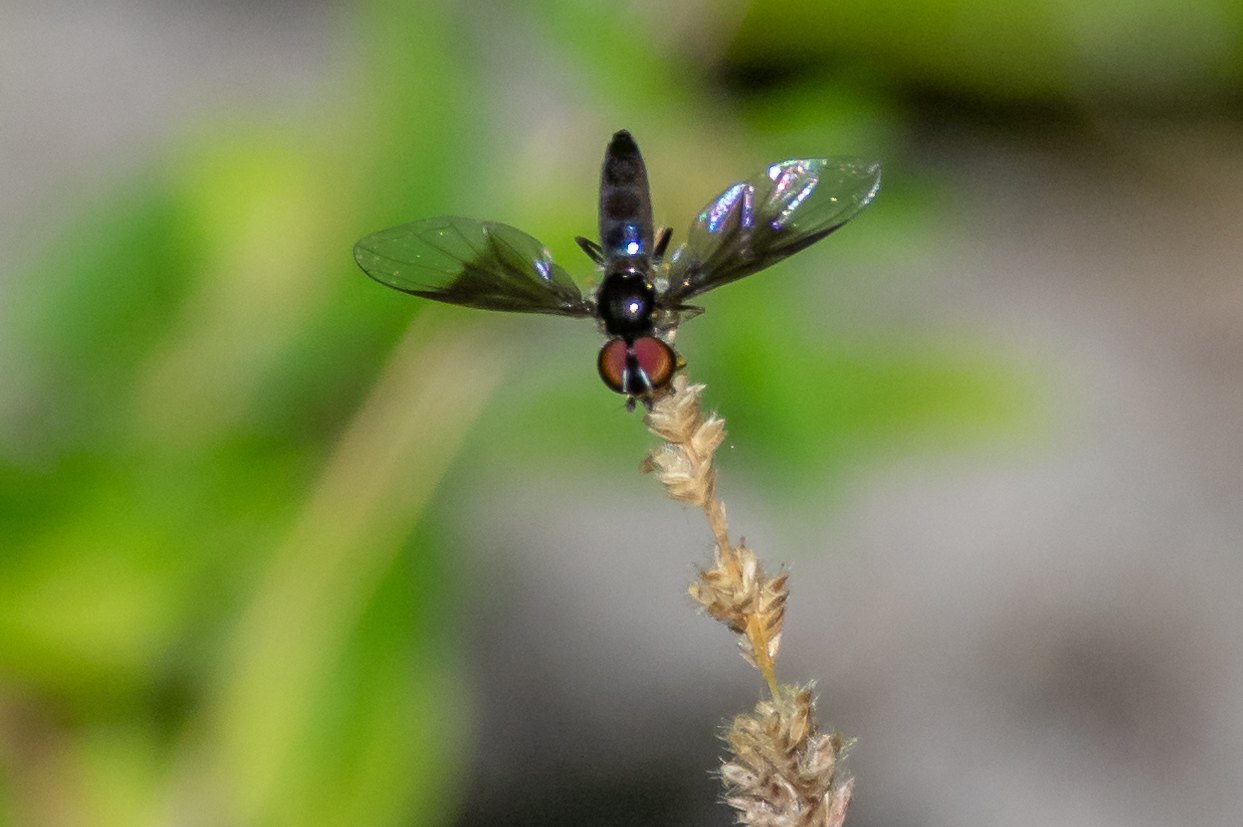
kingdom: Animalia
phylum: Arthropoda
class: Insecta
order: Diptera
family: Syrphidae
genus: Ocyptamus
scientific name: Ocyptamus dimidiatus
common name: Syrphid fly
